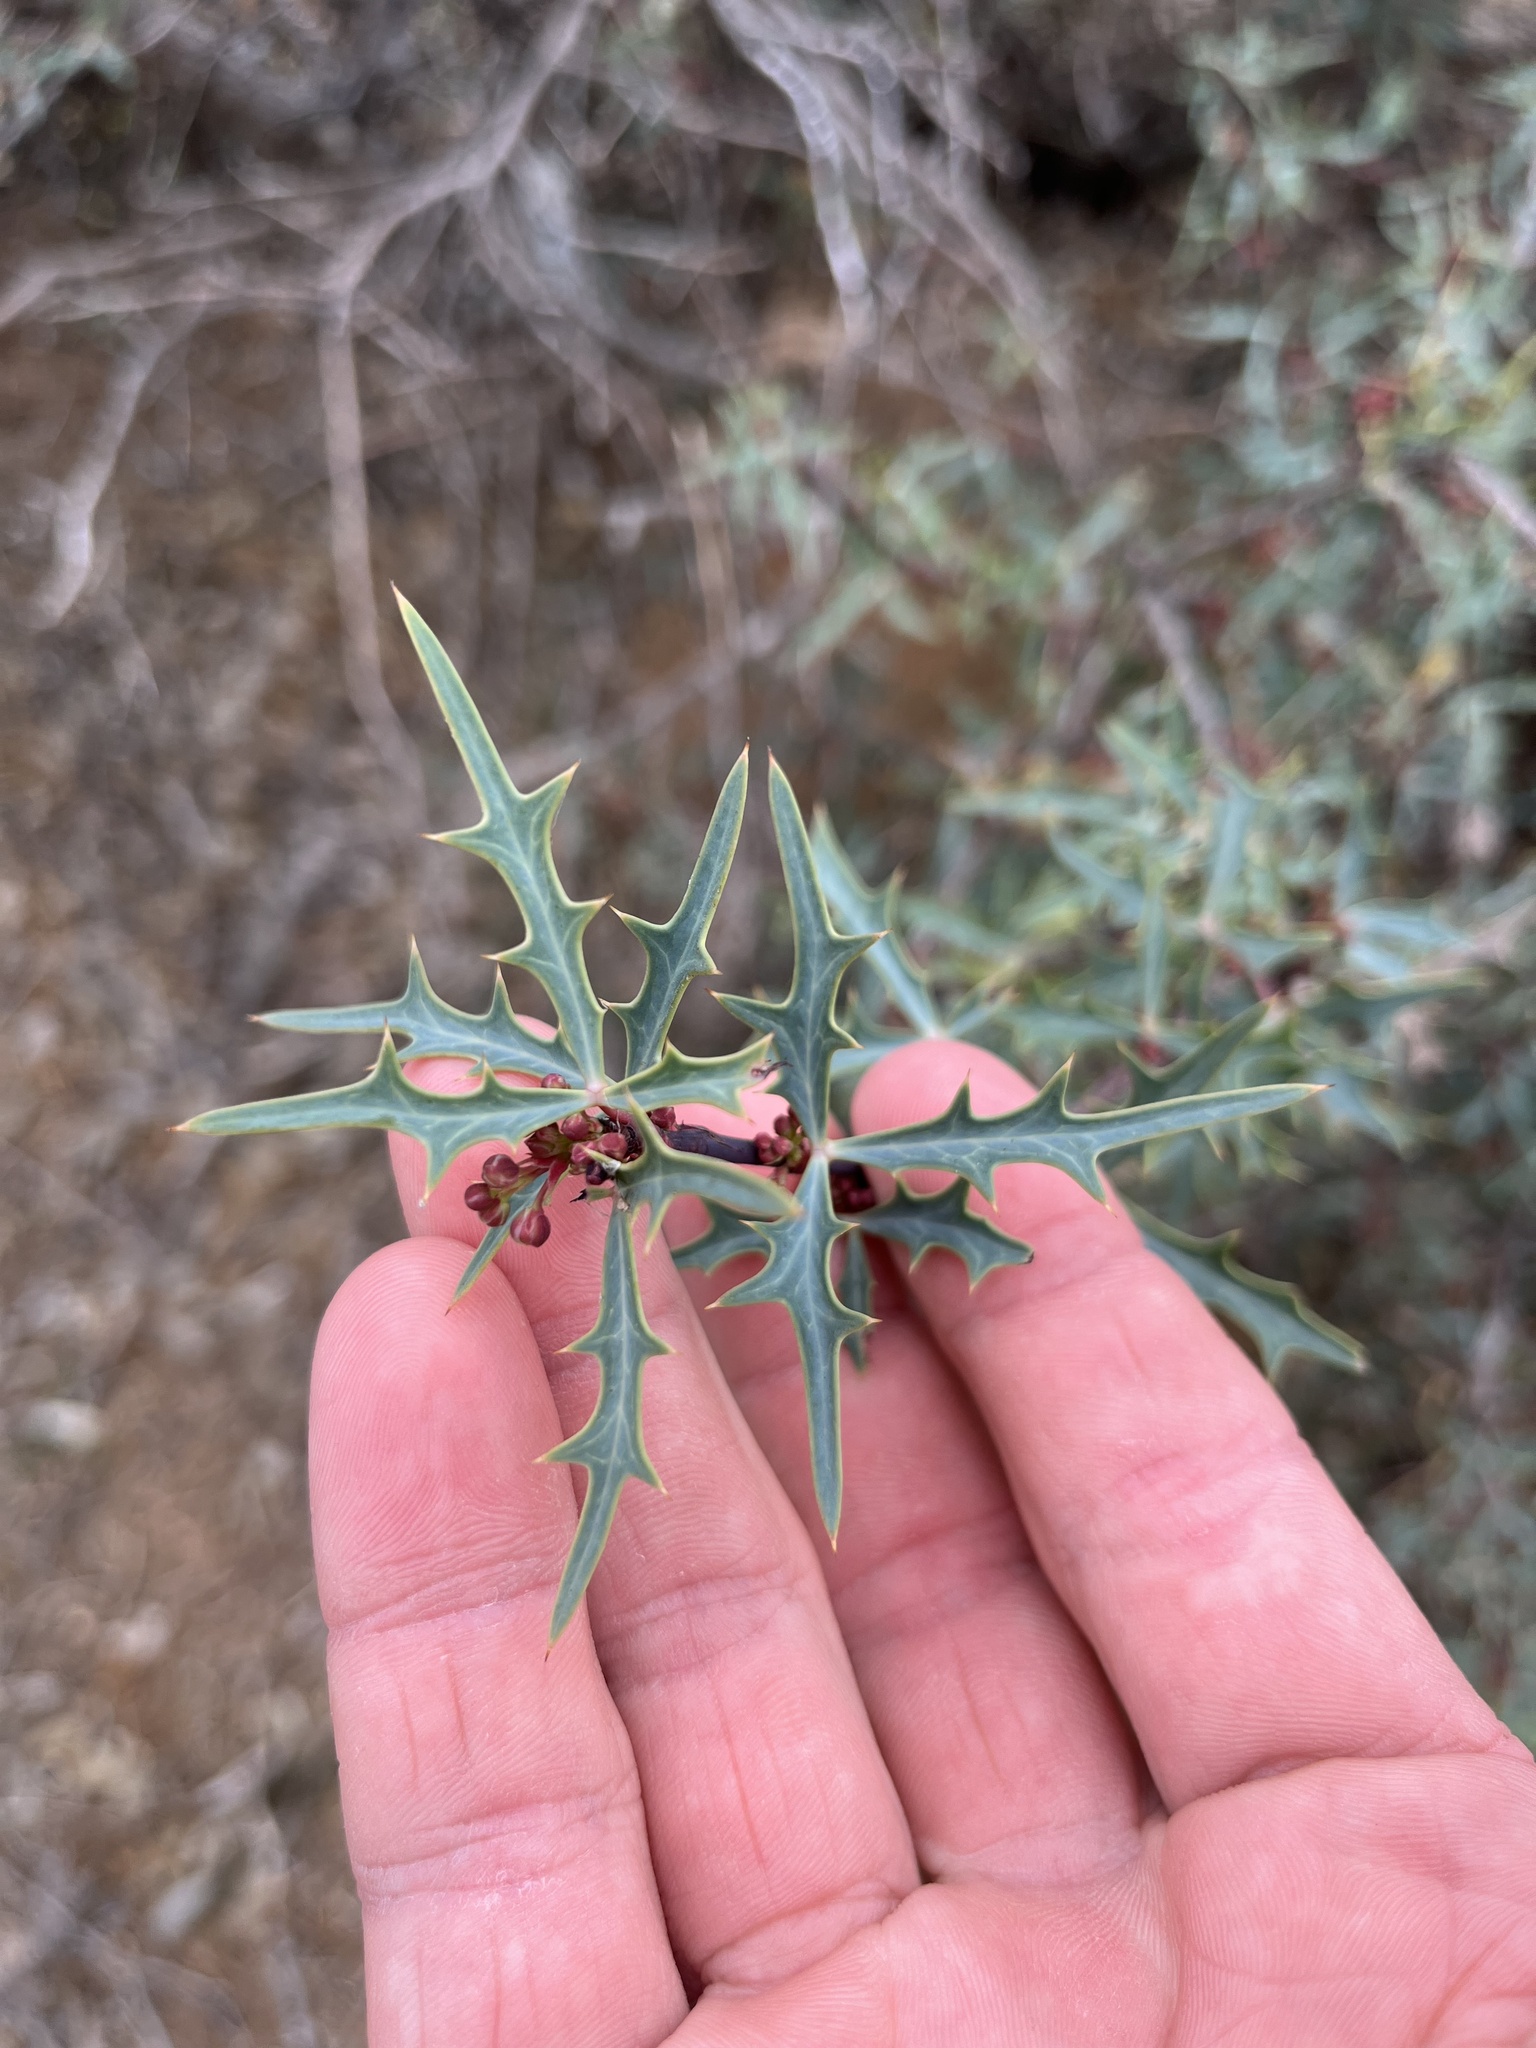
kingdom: Plantae
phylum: Tracheophyta
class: Magnoliopsida
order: Ranunculales
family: Berberidaceae
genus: Alloberberis
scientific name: Alloberberis trifoliolata
